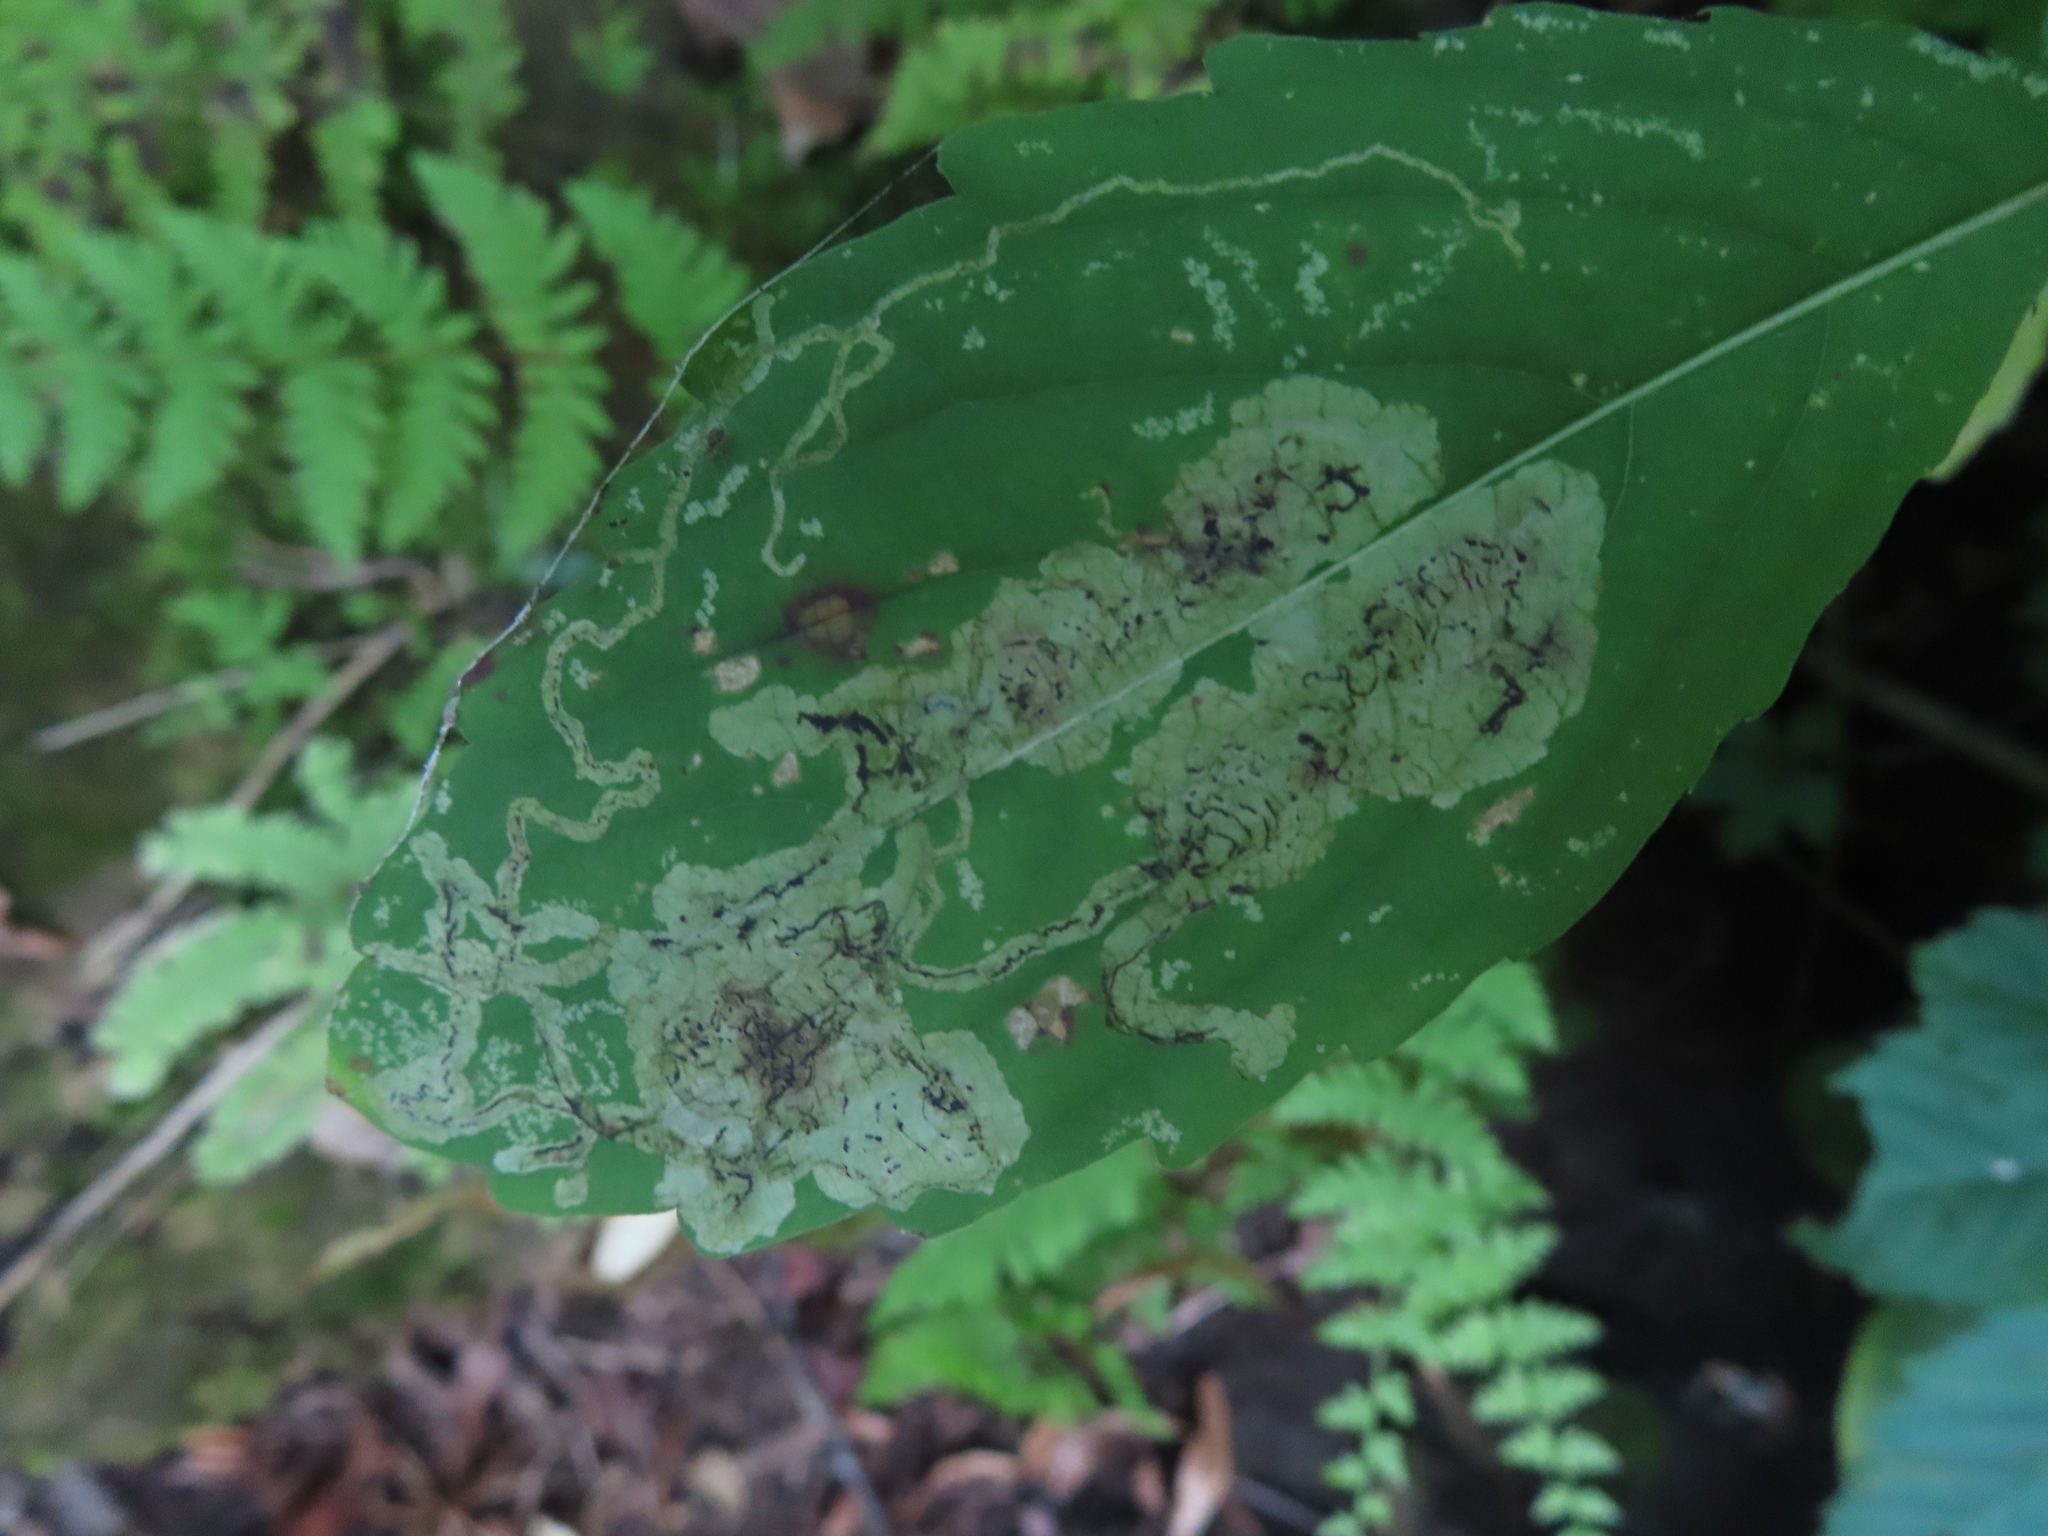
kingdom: Animalia
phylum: Arthropoda
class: Insecta
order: Diptera
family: Agromyzidae
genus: Phytoliriomyza
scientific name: Phytoliriomyza melampyga
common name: Jewelweed leaf-miner fly
